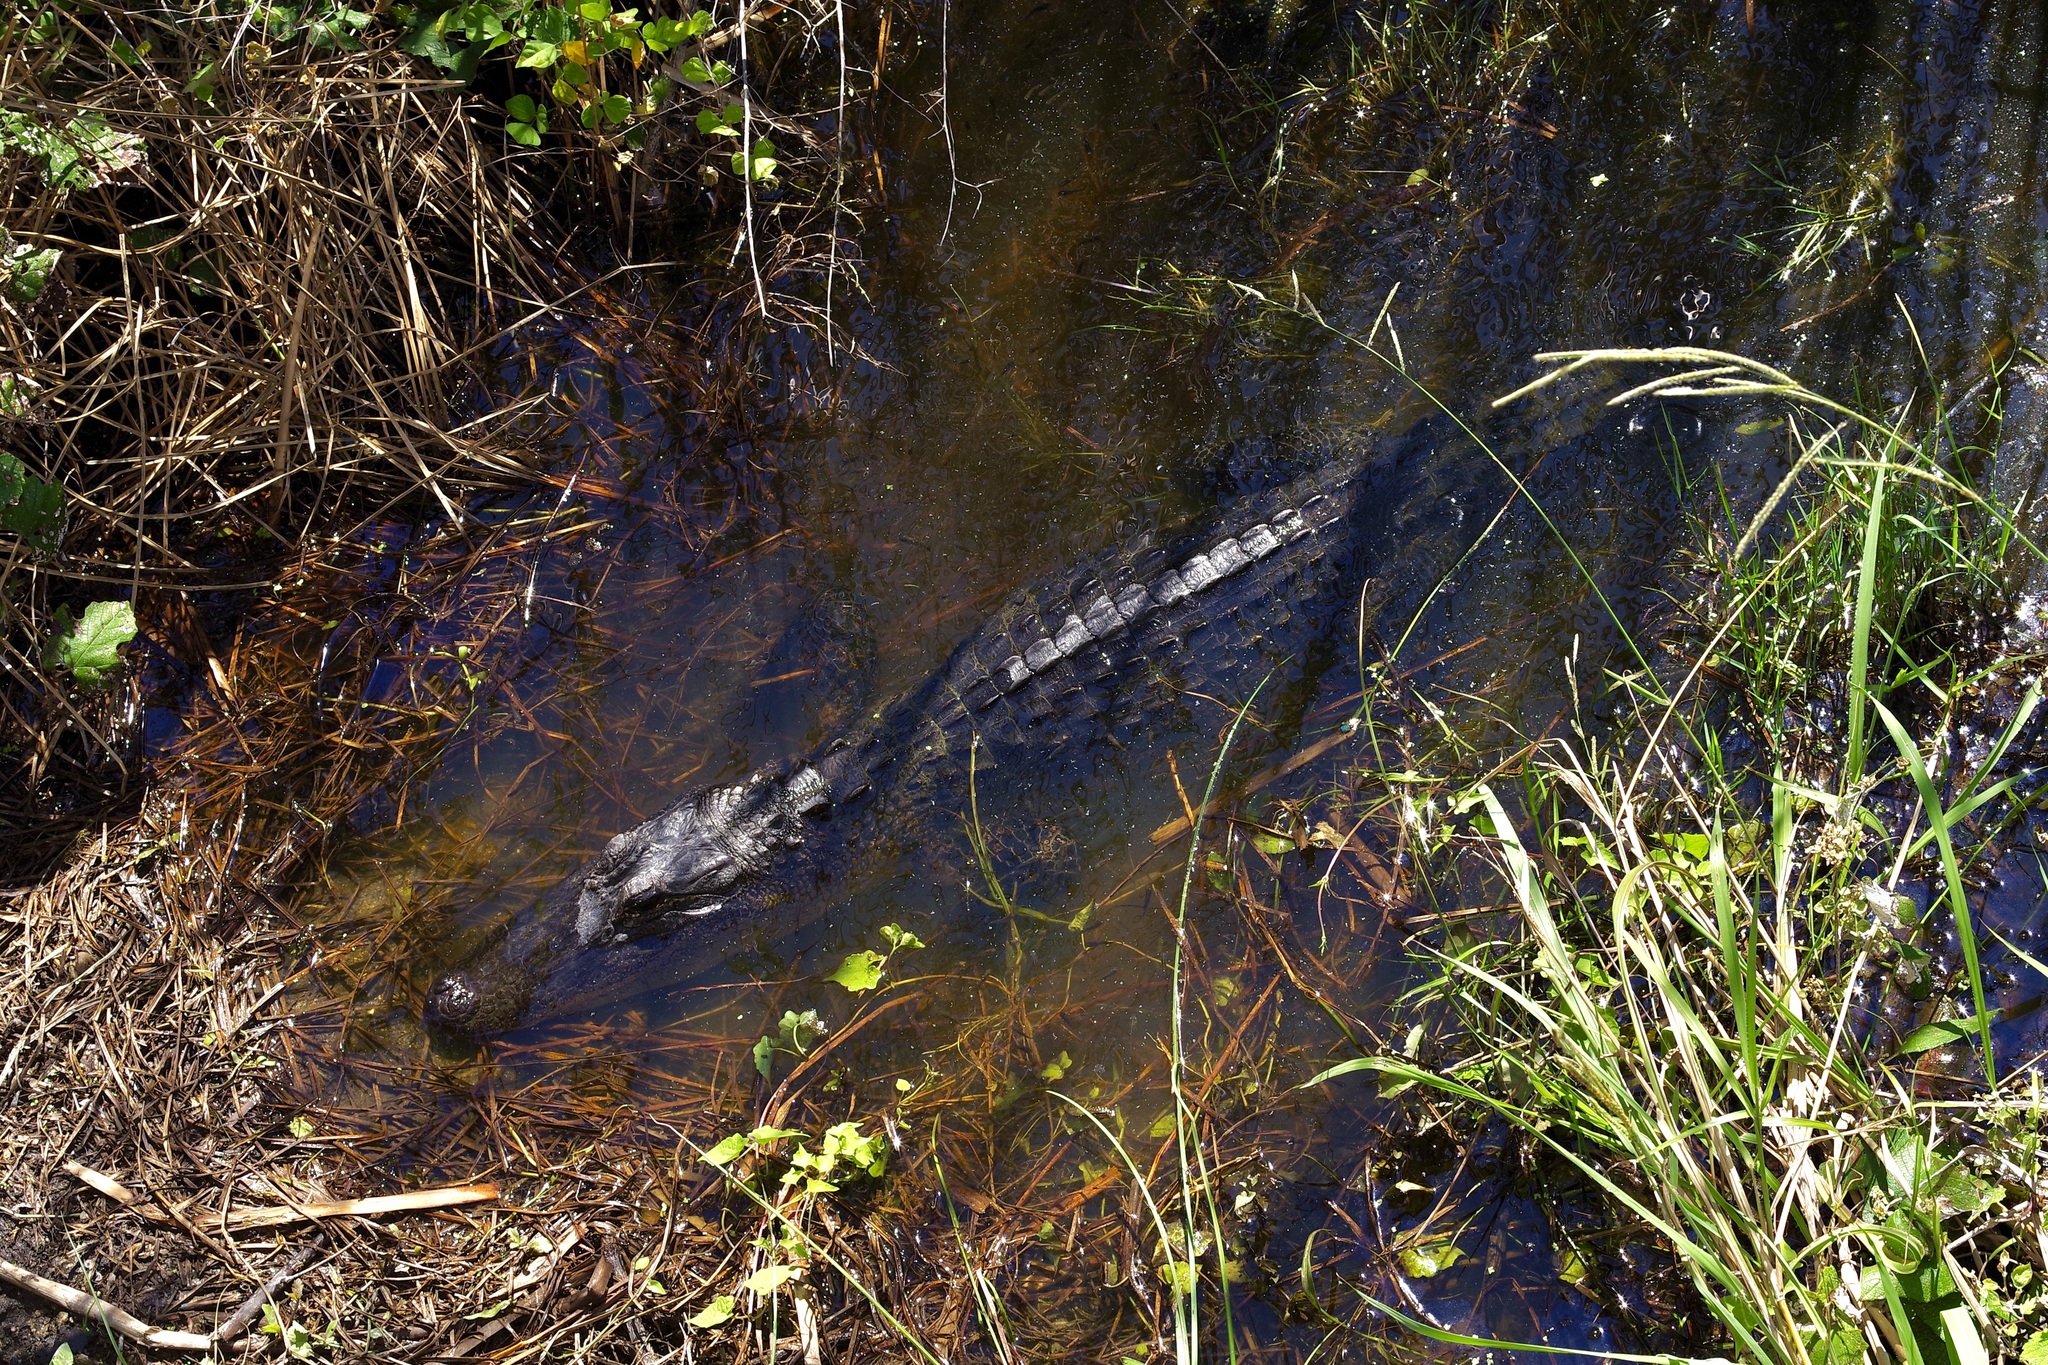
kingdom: Animalia
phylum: Chordata
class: Crocodylia
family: Alligatoridae
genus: Alligator
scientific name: Alligator mississippiensis
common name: American alligator
